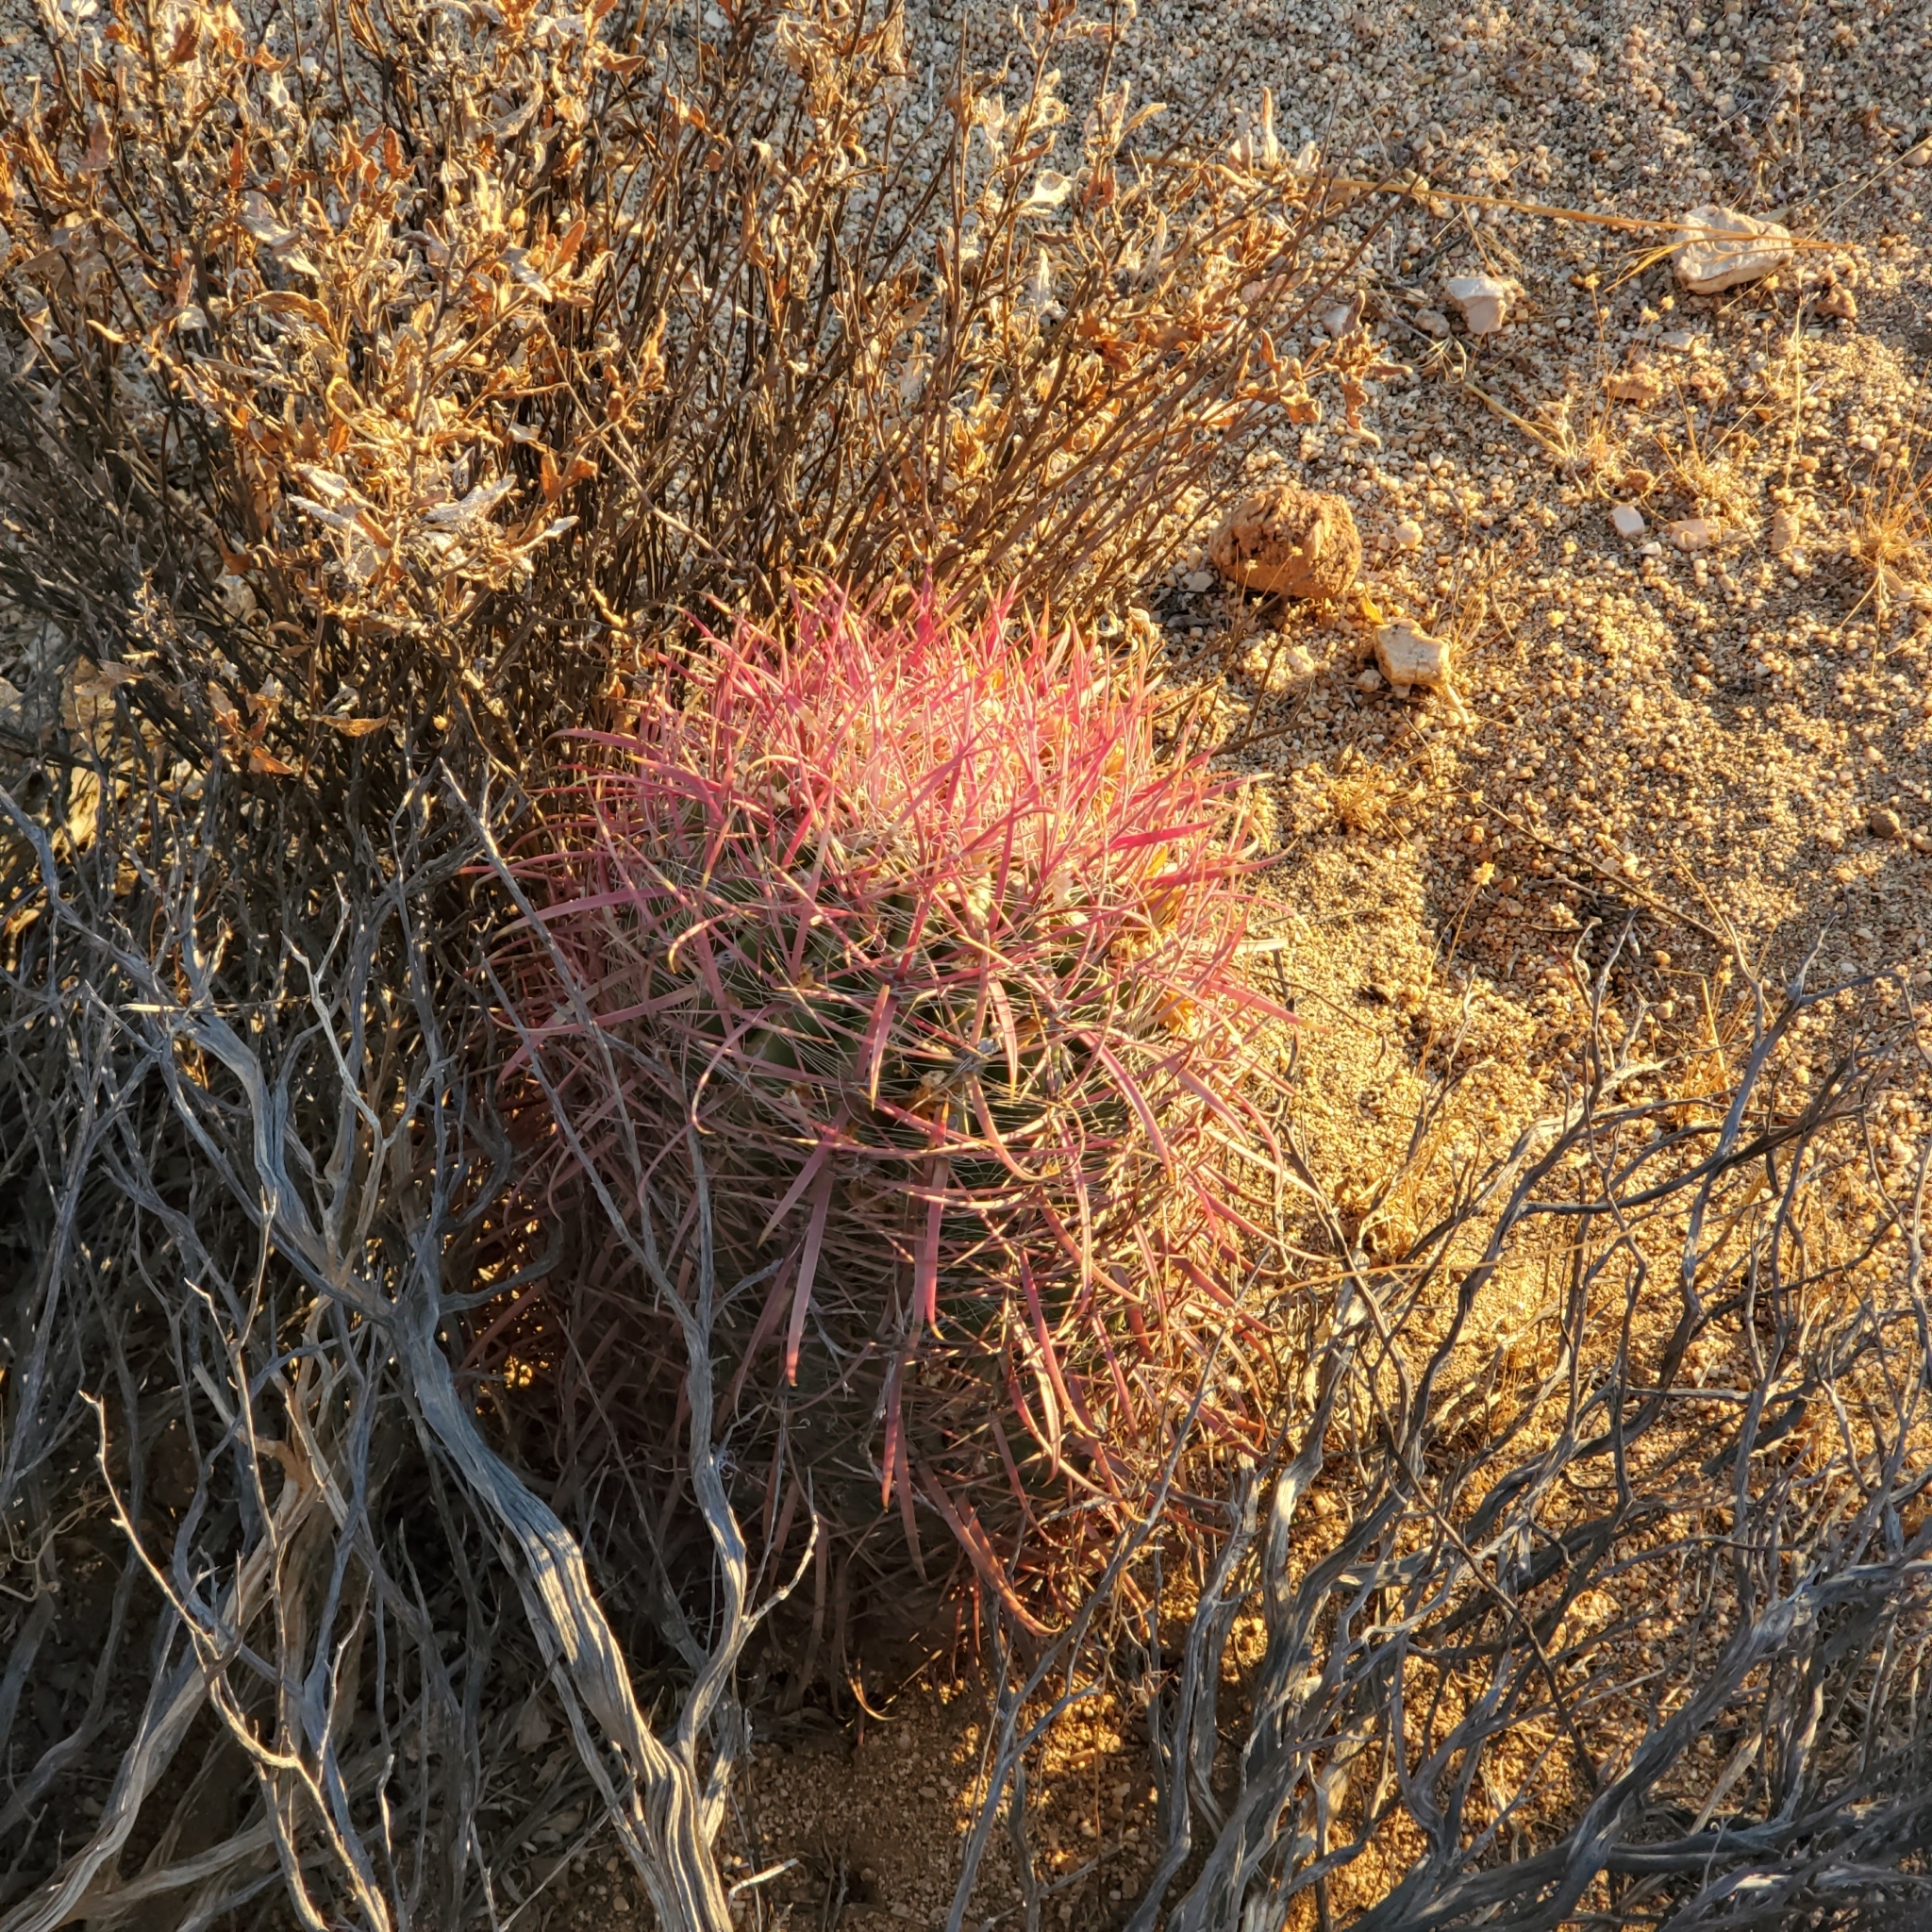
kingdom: Plantae
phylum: Tracheophyta
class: Magnoliopsida
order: Caryophyllales
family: Cactaceae
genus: Ferocactus
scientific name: Ferocactus gracilis
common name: Fire barrel cactus
